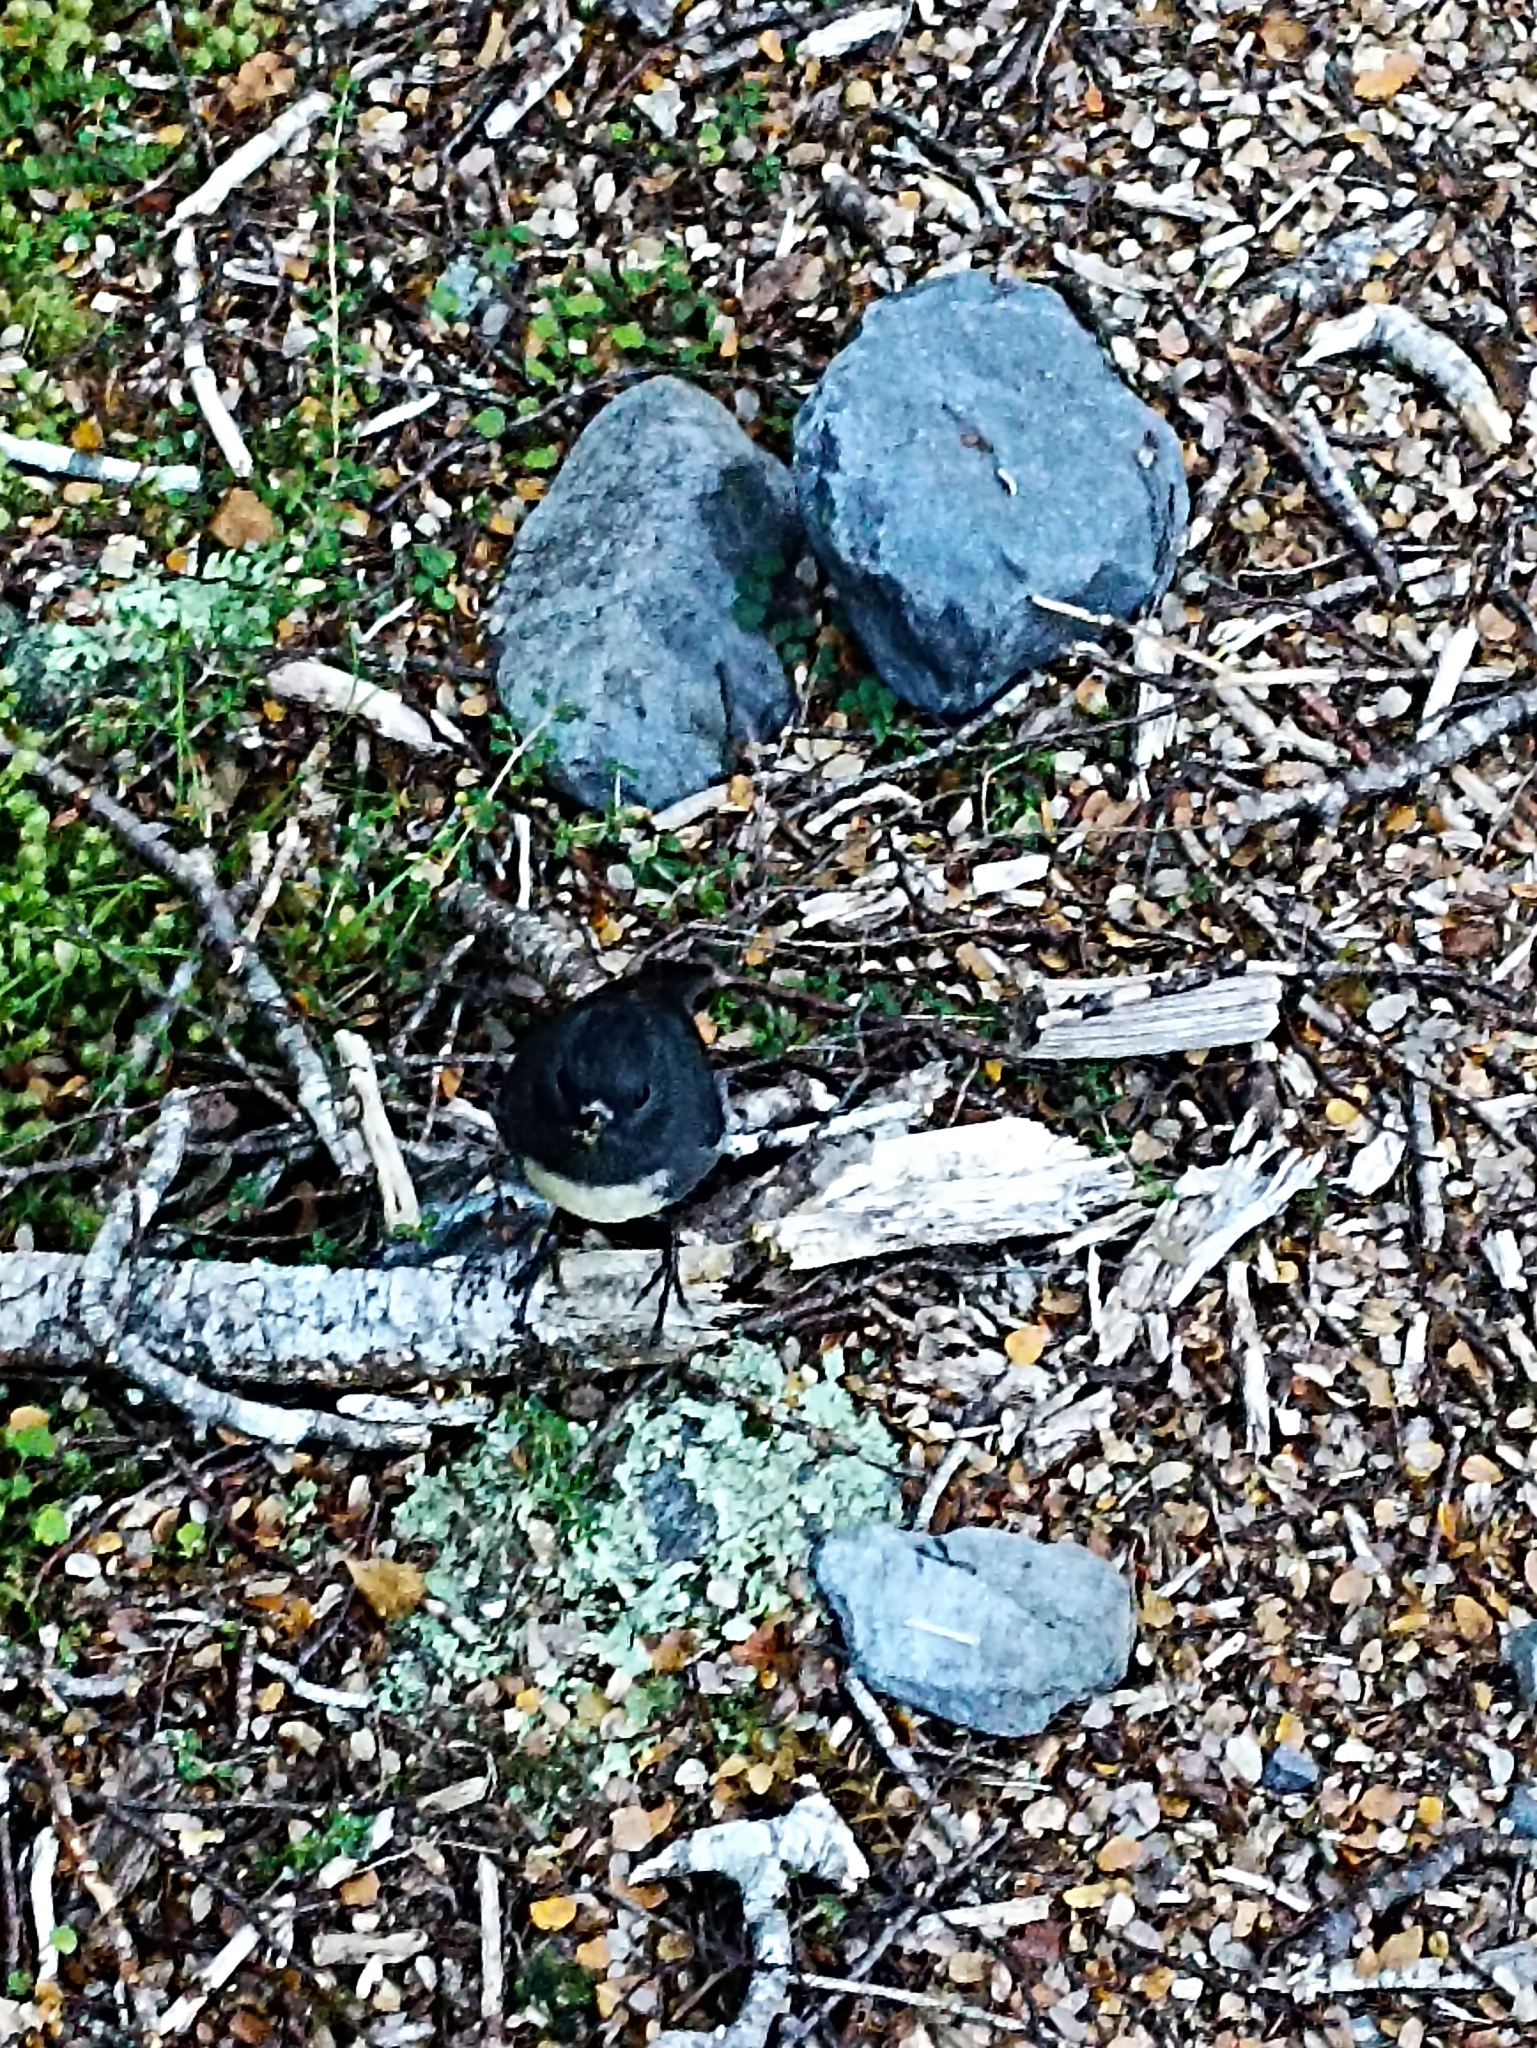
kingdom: Animalia
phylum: Chordata
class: Aves
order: Passeriformes
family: Petroicidae
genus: Petroica
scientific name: Petroica australis
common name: New zealand robin
